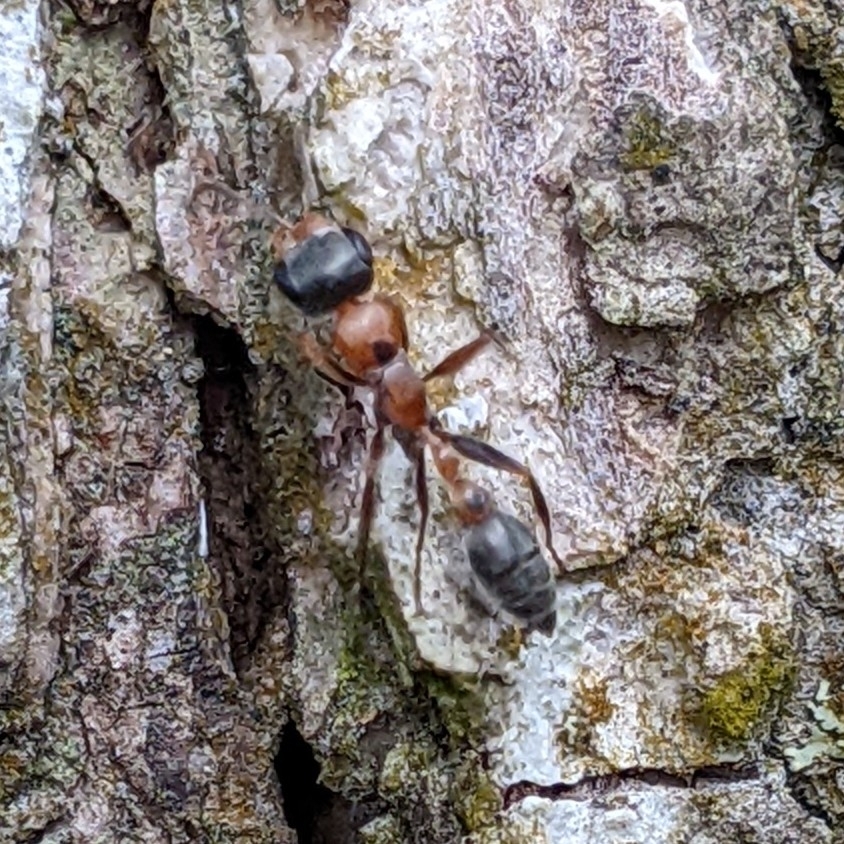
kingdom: Animalia
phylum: Arthropoda
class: Insecta
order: Hymenoptera
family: Formicidae
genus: Pseudomyrmex
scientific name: Pseudomyrmex gracilis
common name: Graceful twig ant
